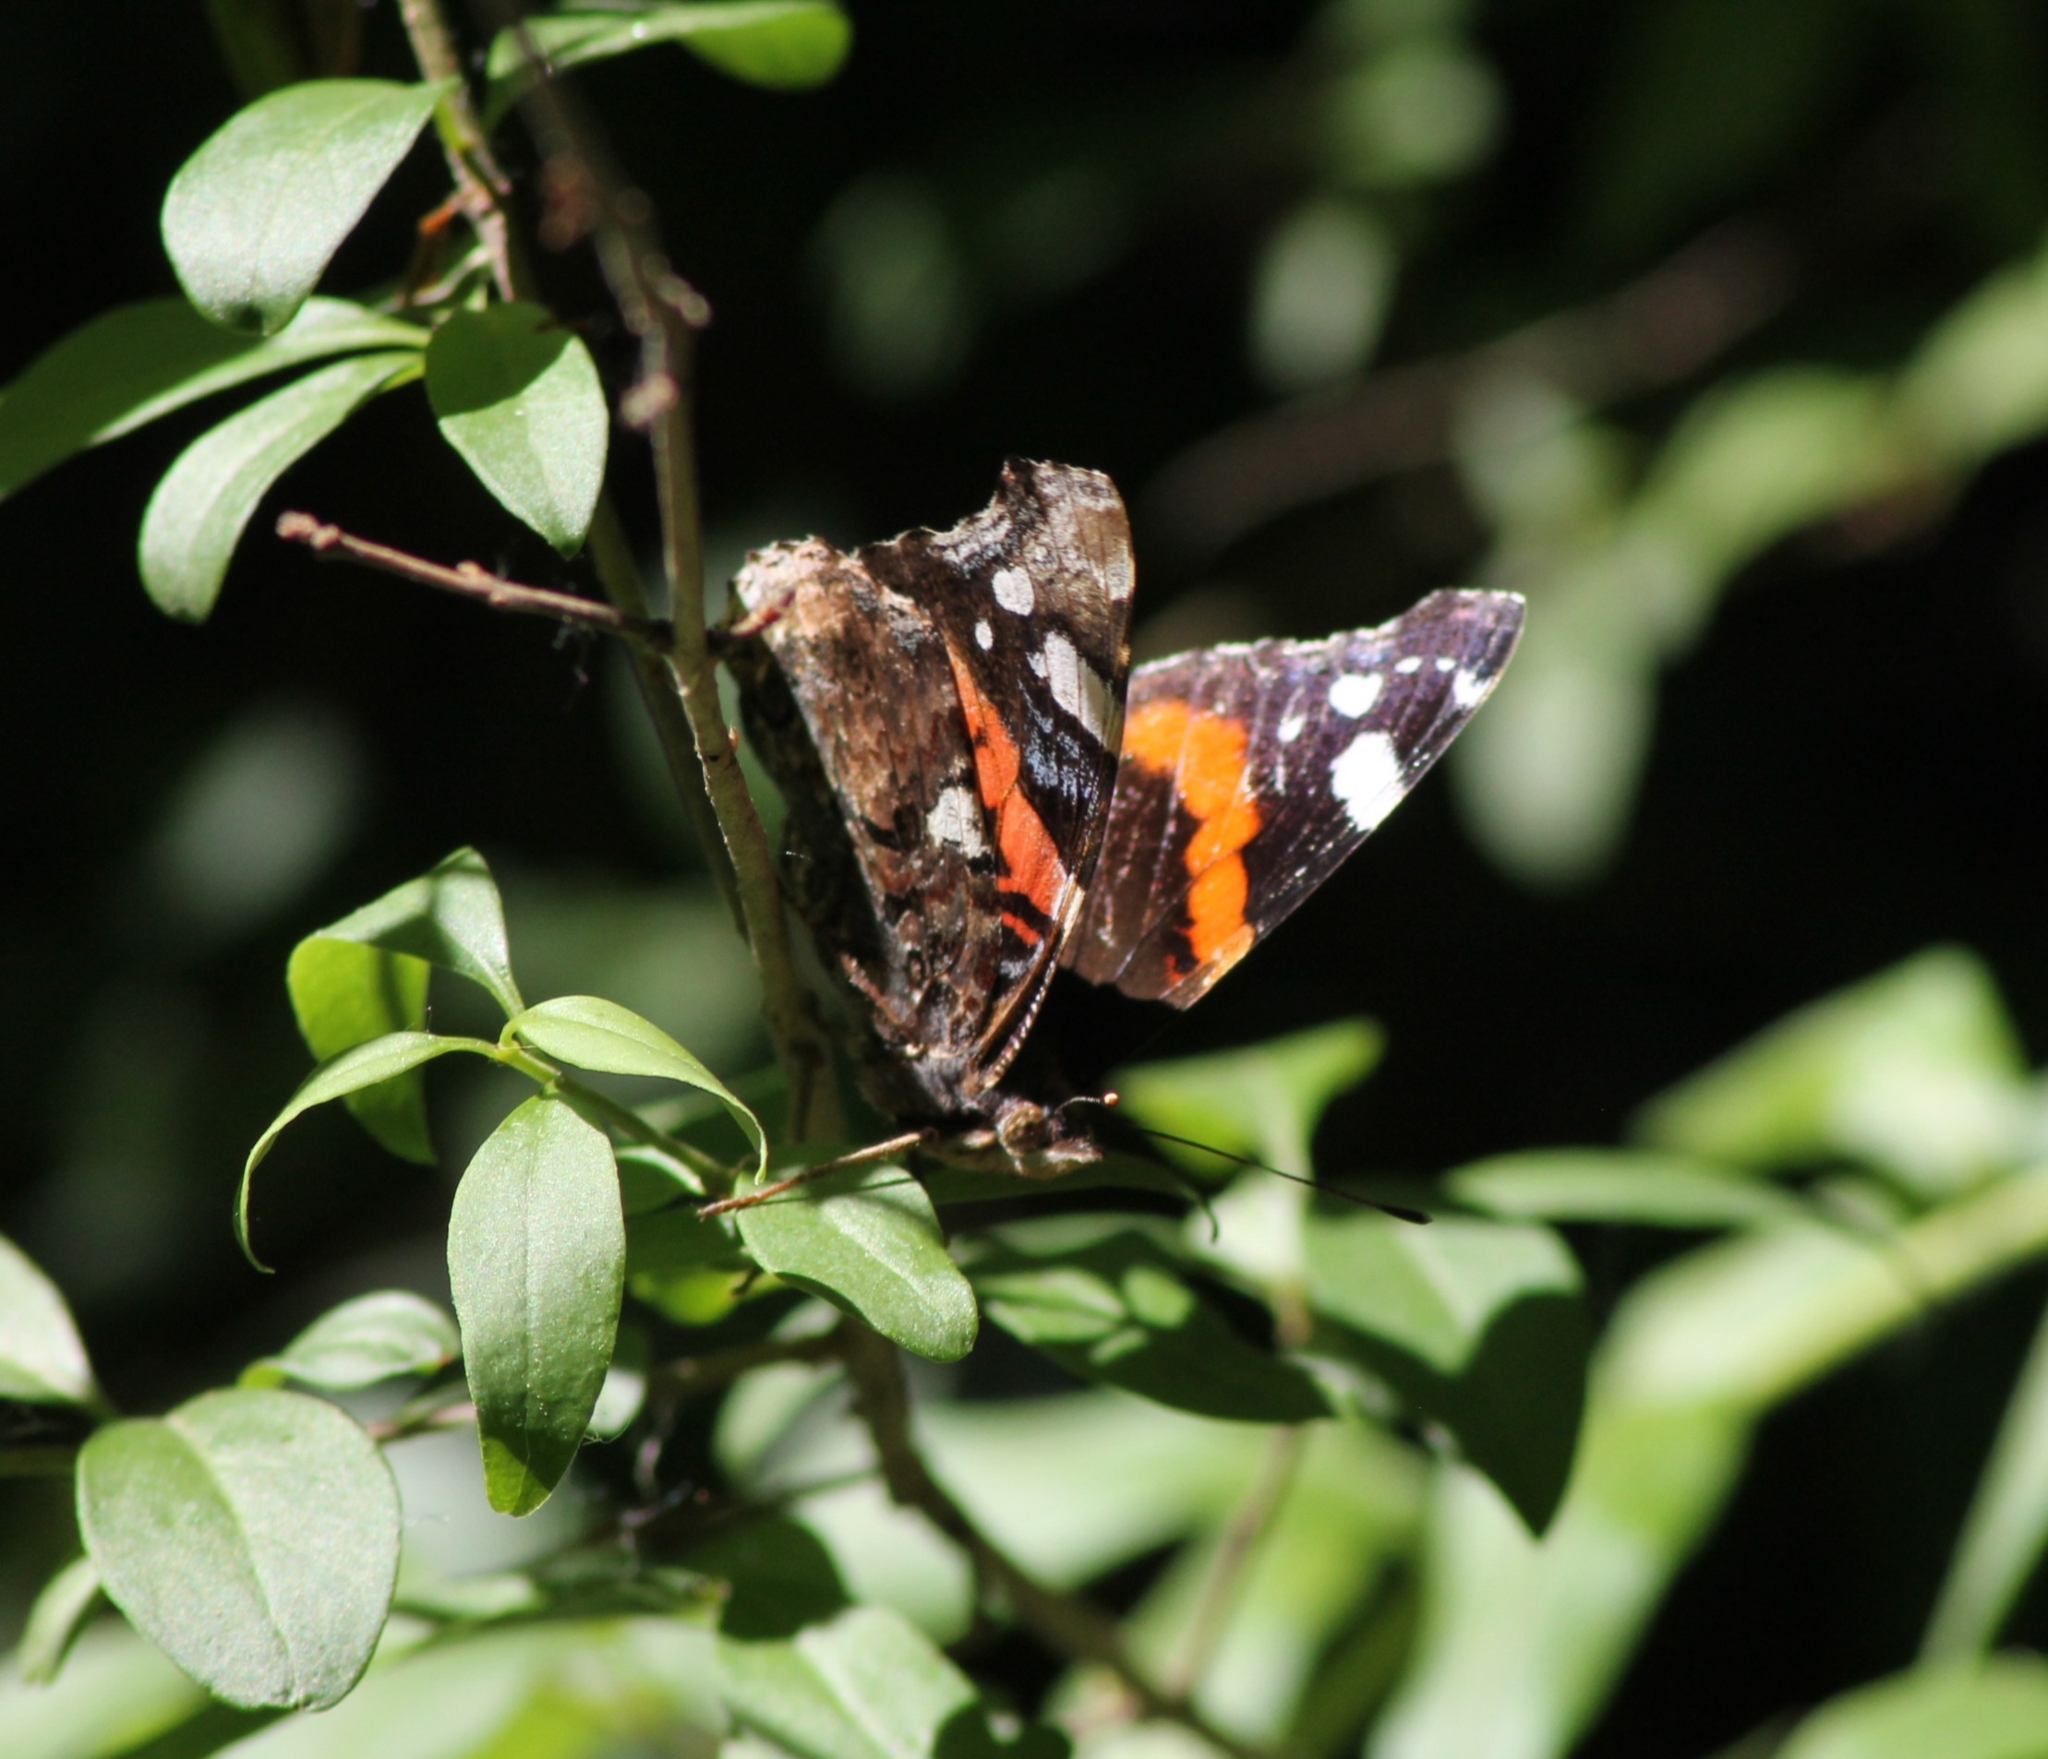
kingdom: Animalia
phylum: Arthropoda
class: Insecta
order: Lepidoptera
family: Nymphalidae
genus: Vanessa
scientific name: Vanessa atalanta
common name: Red admiral
